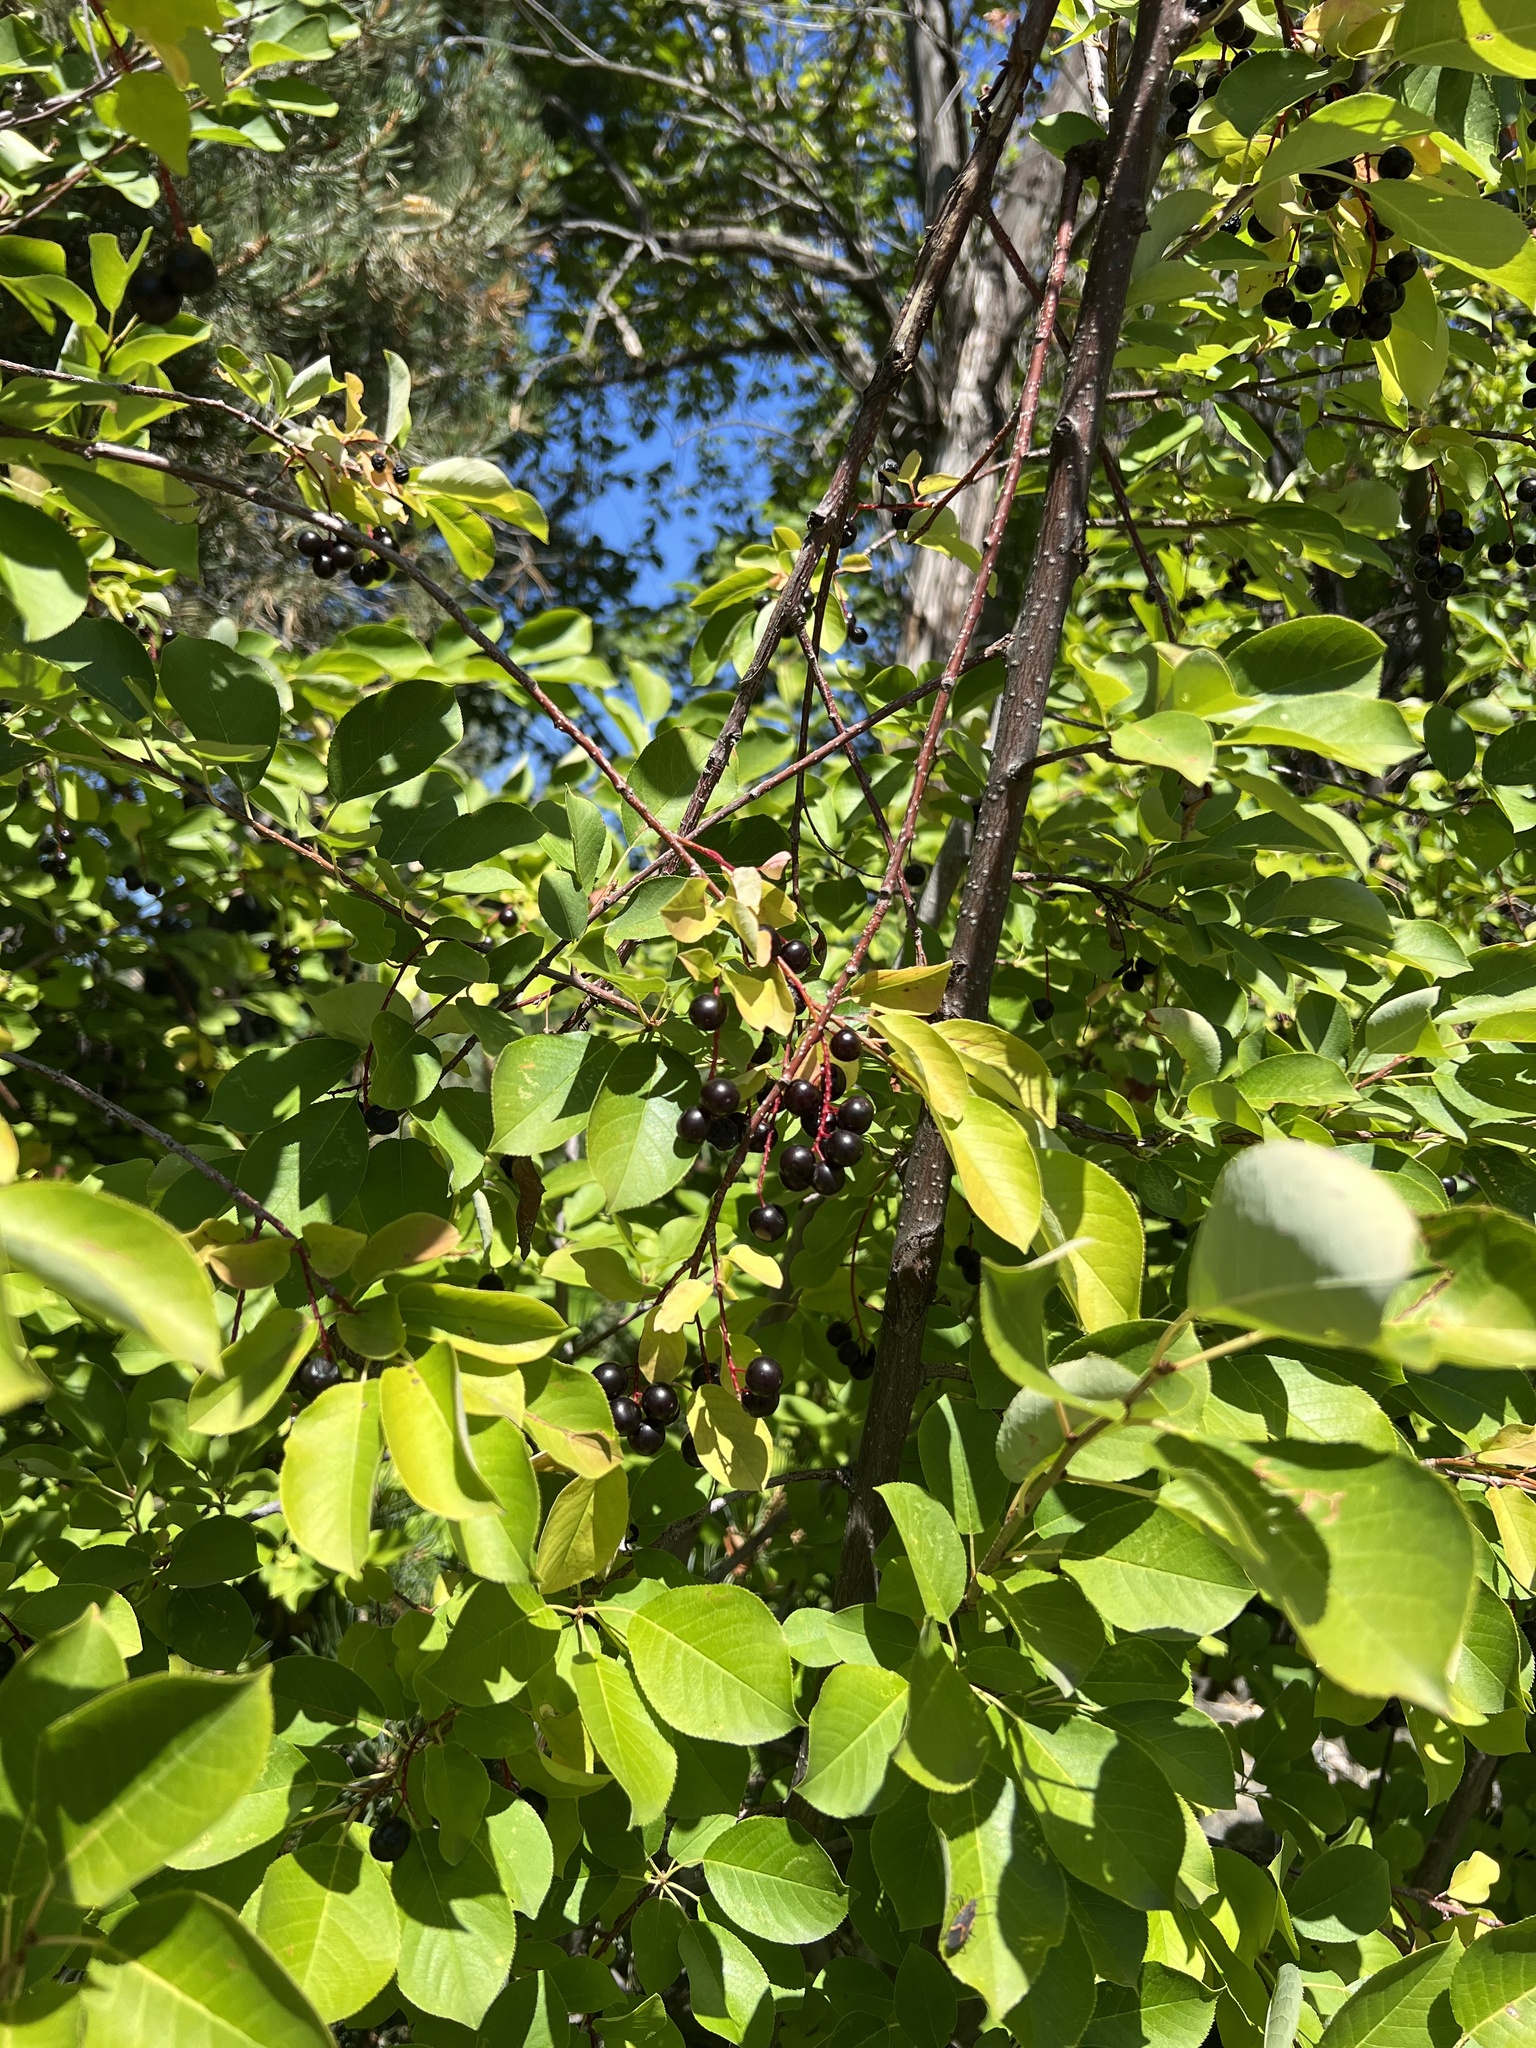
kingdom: Plantae
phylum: Tracheophyta
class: Magnoliopsida
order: Rosales
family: Rosaceae
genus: Prunus
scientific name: Prunus virginiana
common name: Chokecherry
